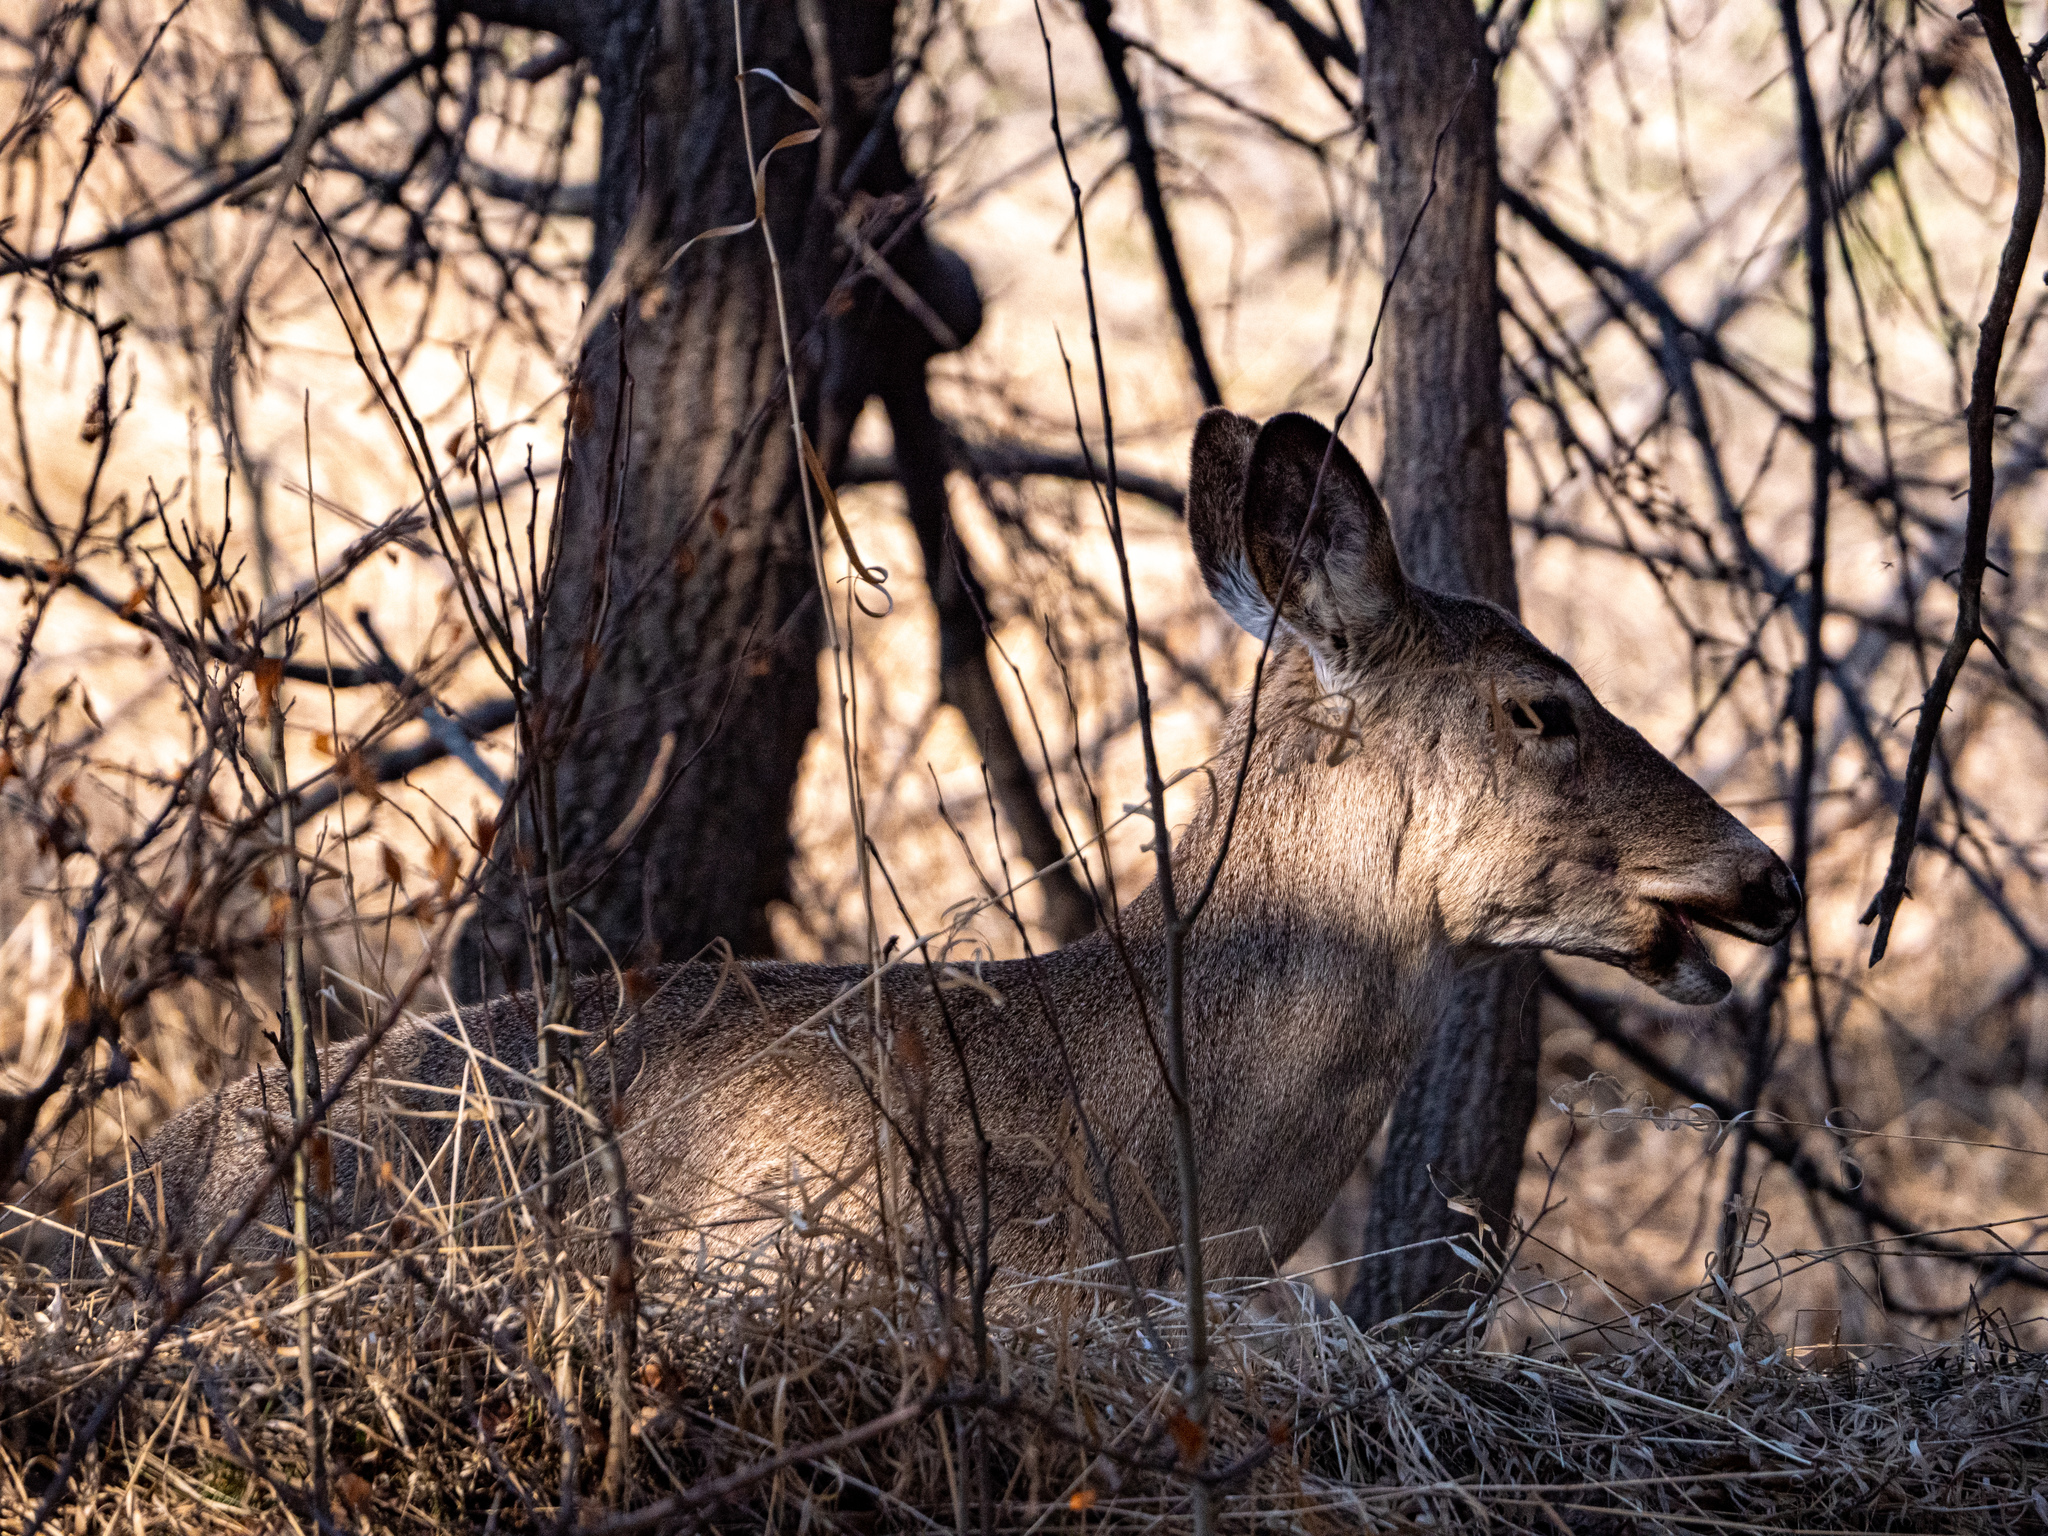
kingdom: Animalia
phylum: Chordata
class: Mammalia
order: Artiodactyla
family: Cervidae
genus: Odocoileus
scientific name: Odocoileus virginianus
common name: White-tailed deer
